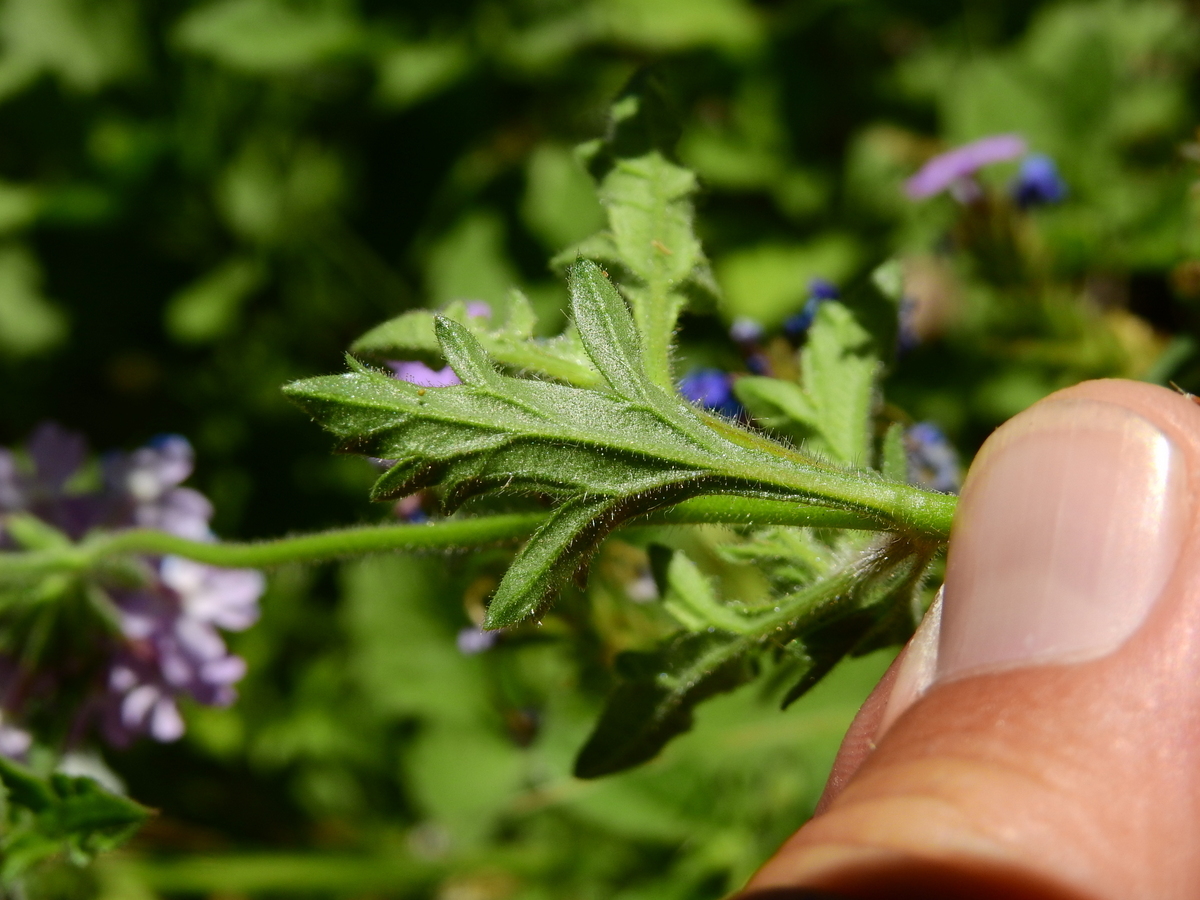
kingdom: Plantae
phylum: Tracheophyta
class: Magnoliopsida
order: Lamiales
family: Verbenaceae
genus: Verbena
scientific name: Verbena mendocina
